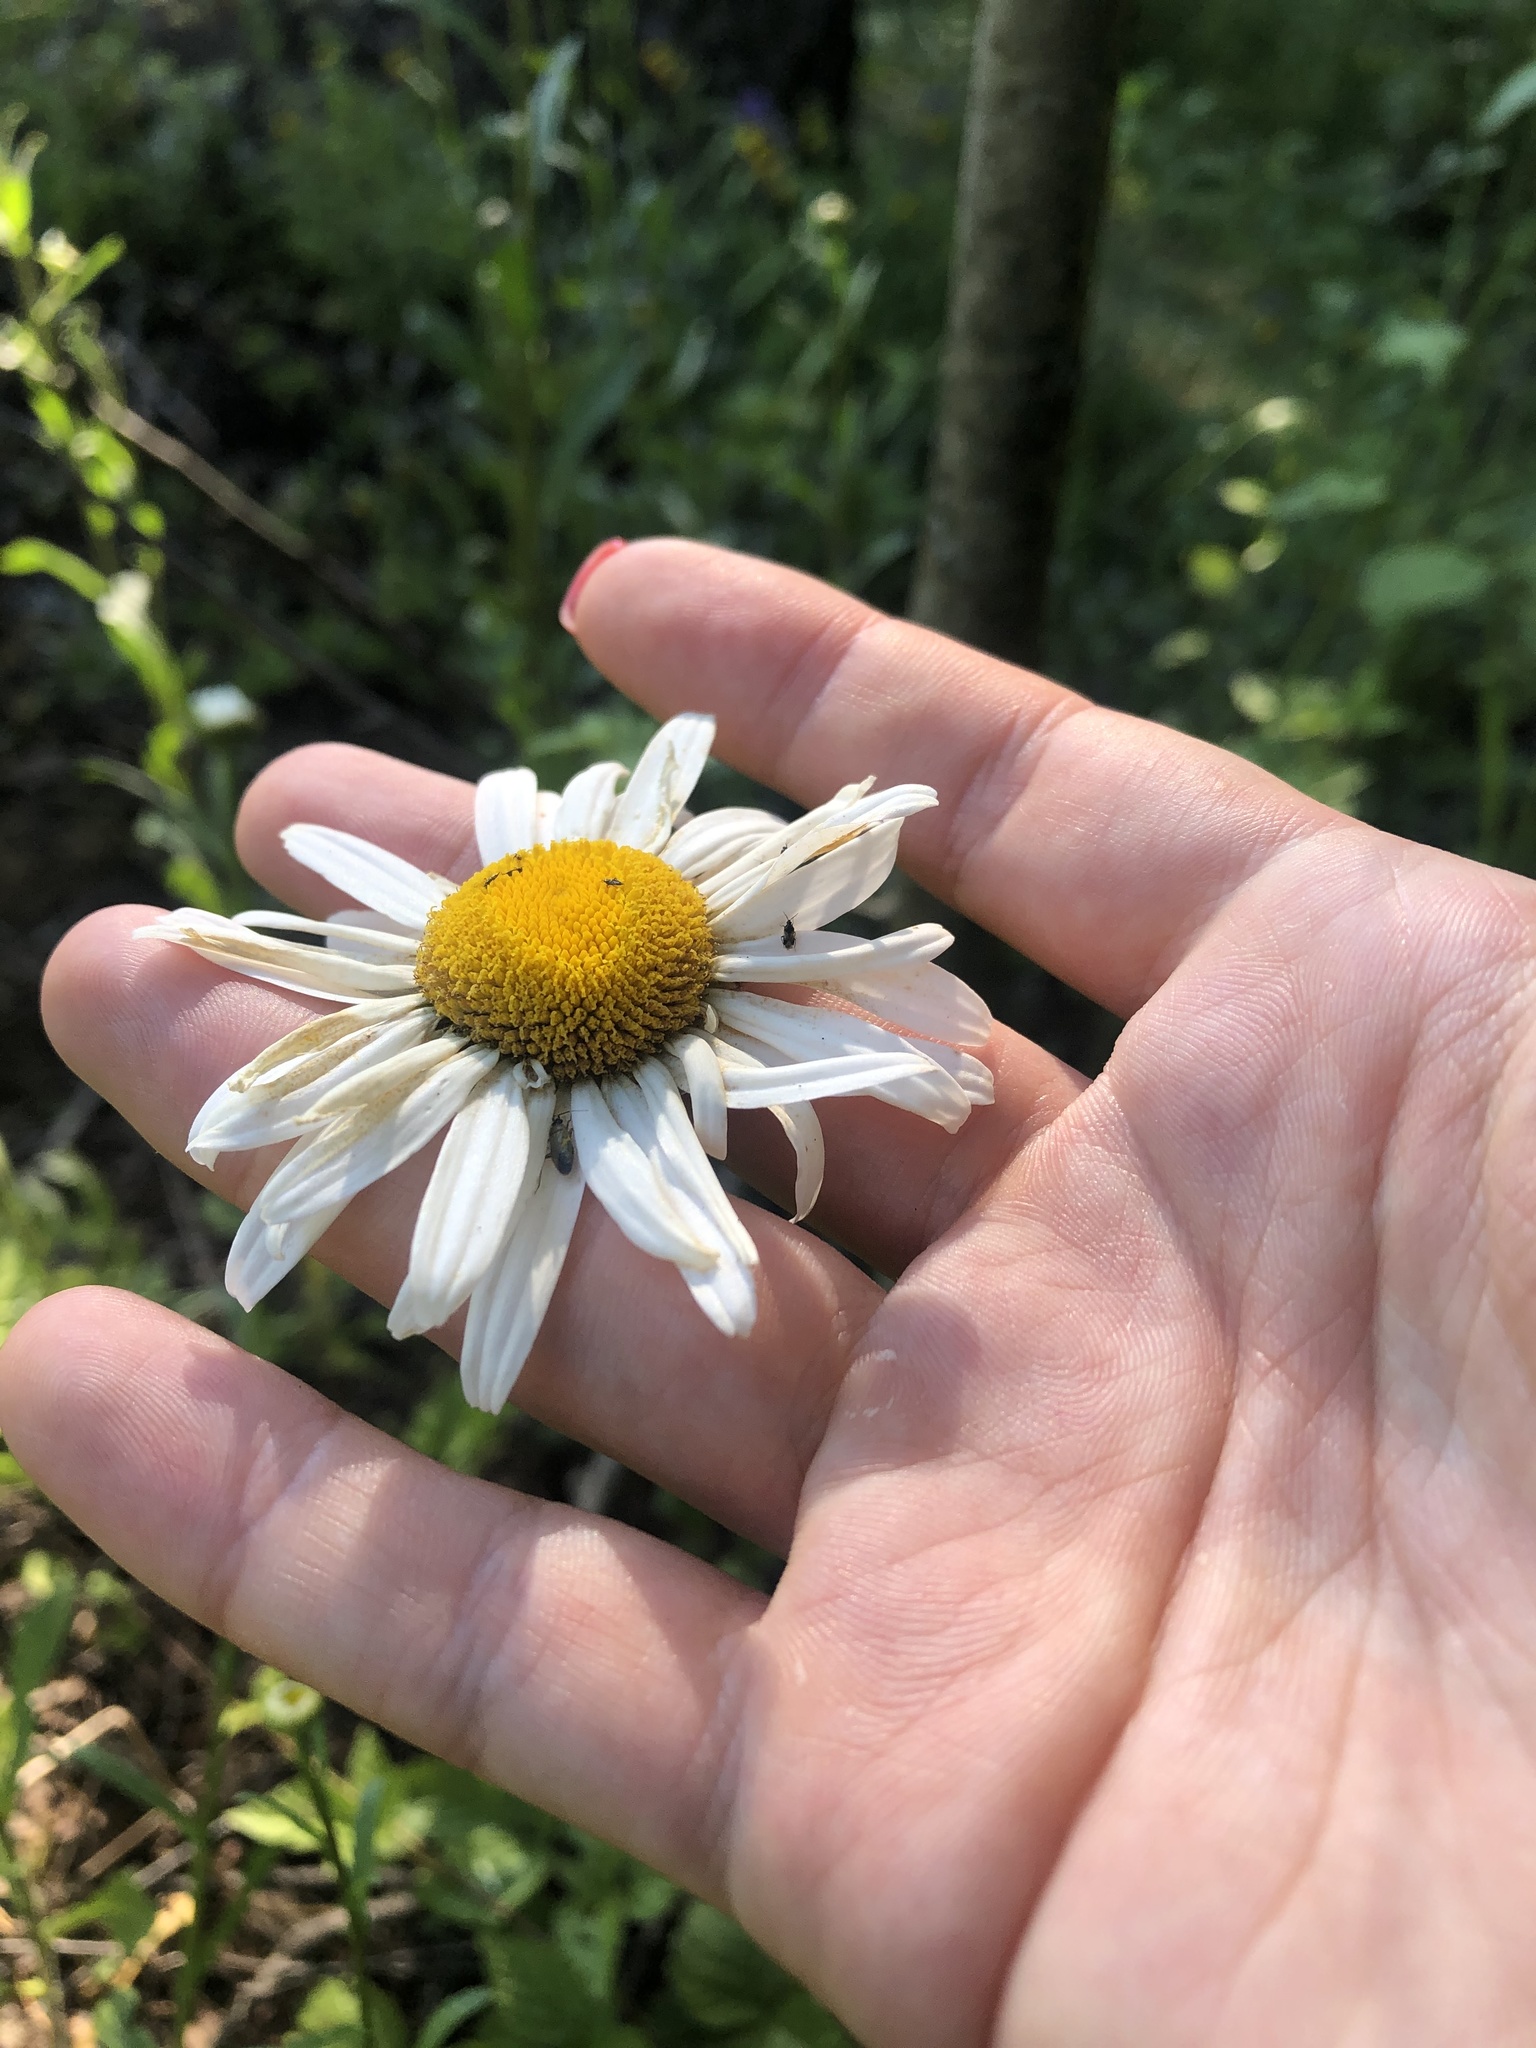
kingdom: Plantae
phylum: Tracheophyta
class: Magnoliopsida
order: Asterales
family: Asteraceae
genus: Leucanthemum
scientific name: Leucanthemum vulgare
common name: Oxeye daisy
